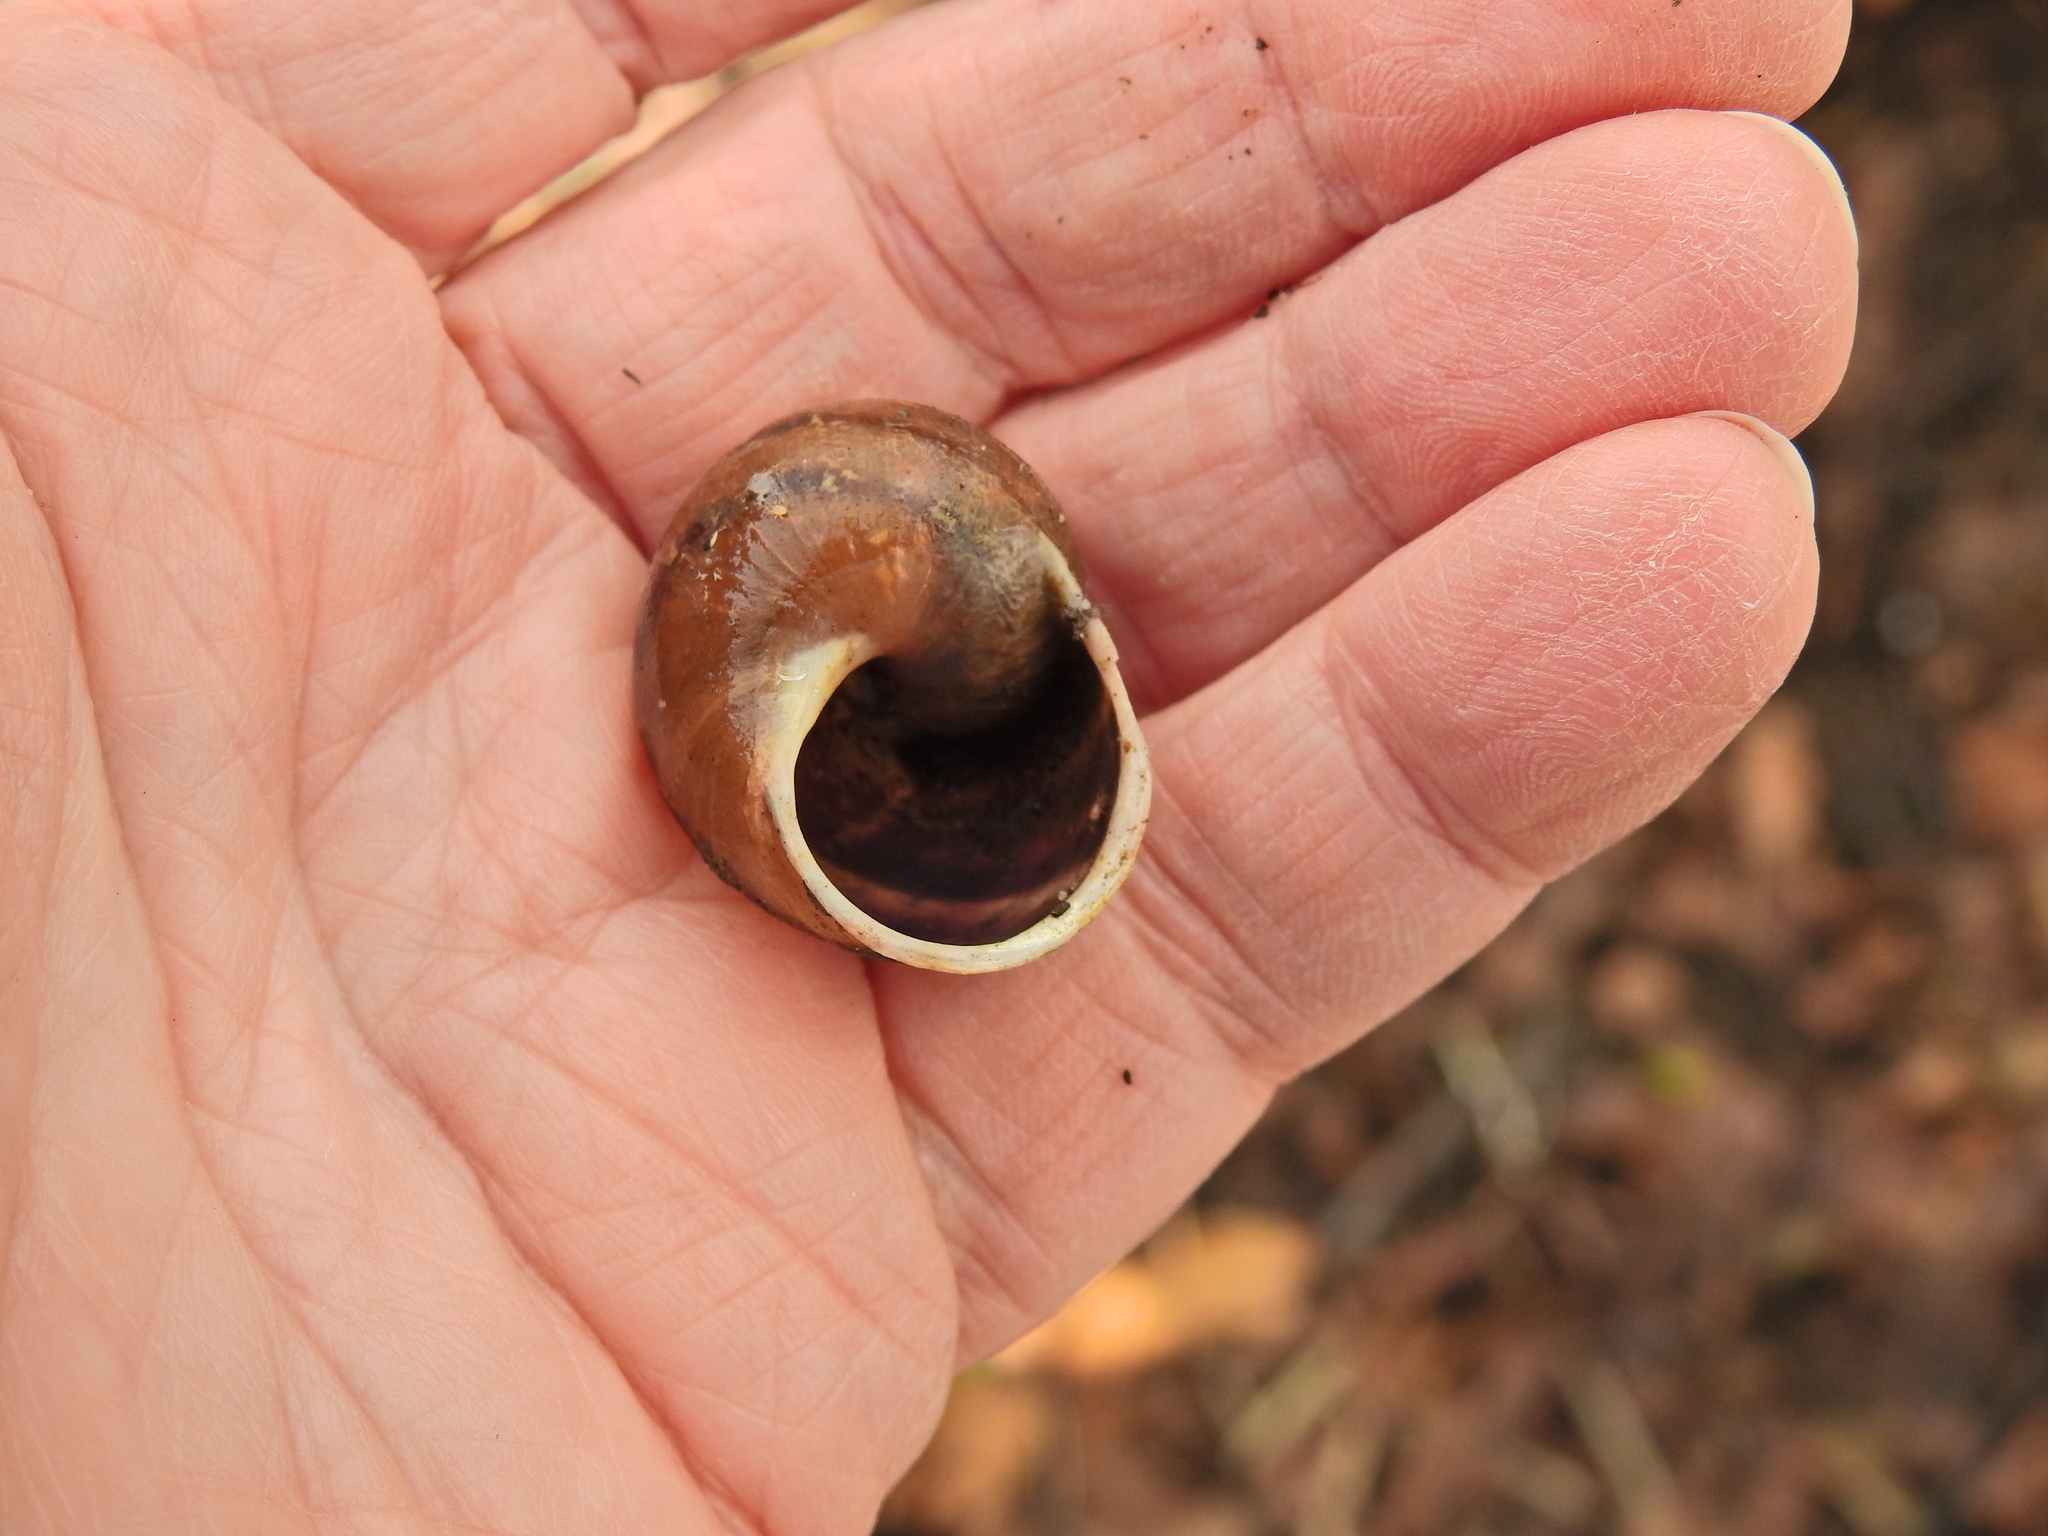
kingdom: Animalia
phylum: Mollusca
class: Gastropoda
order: Stylommatophora
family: Helicidae
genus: Cornu
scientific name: Cornu aspersum
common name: Brown garden snail
